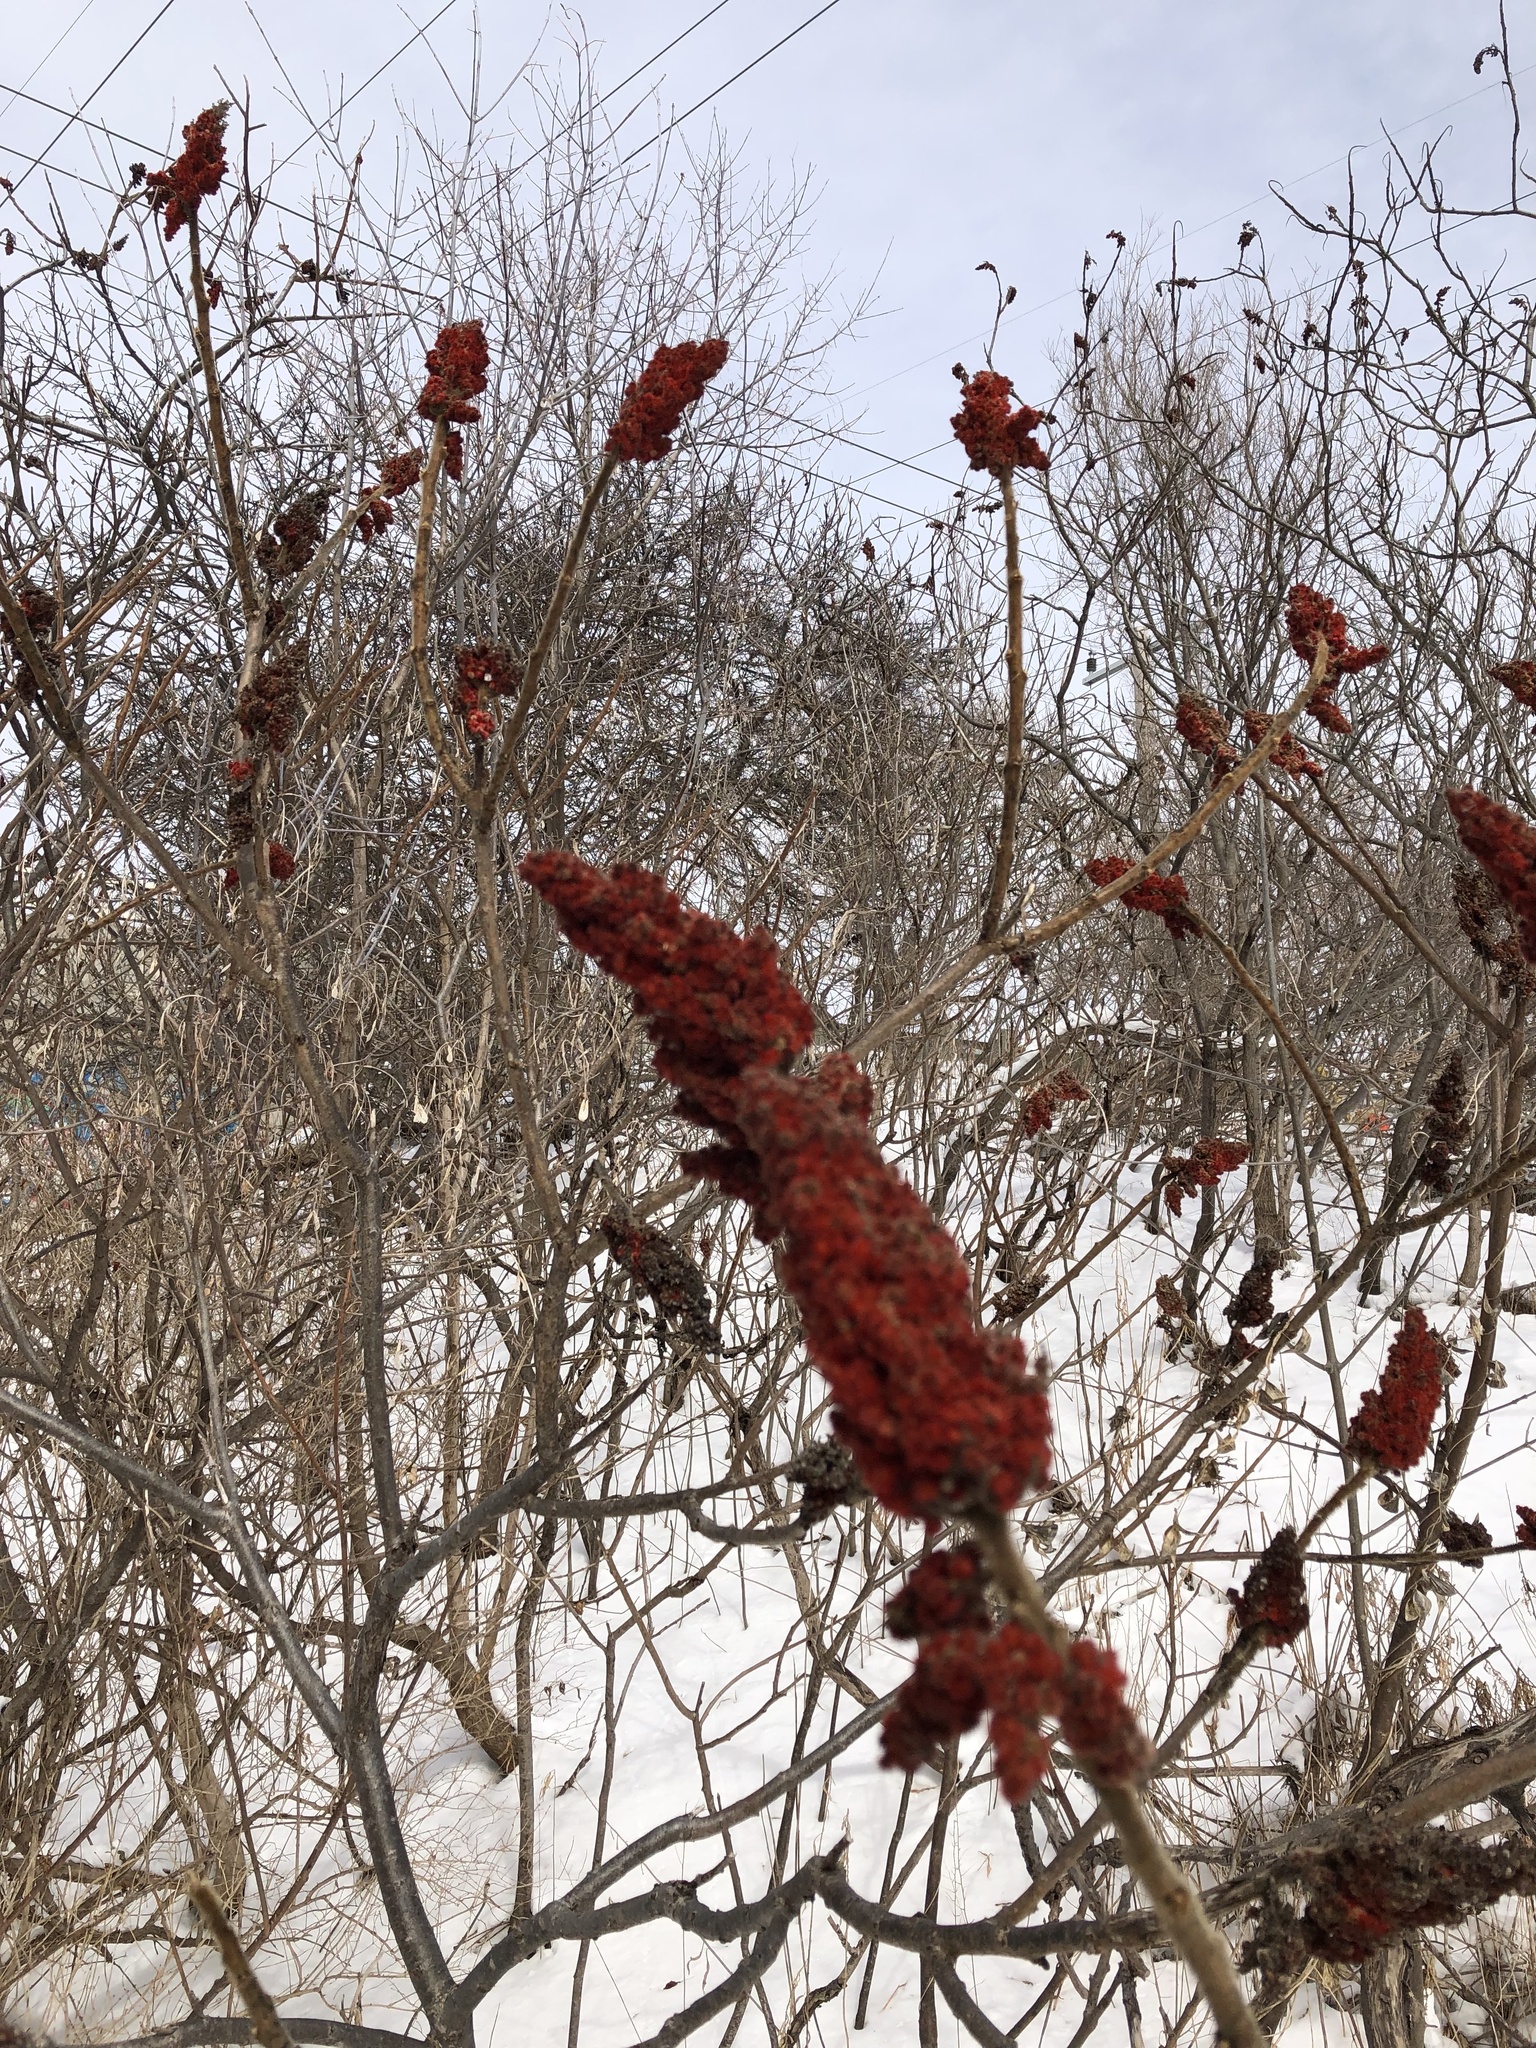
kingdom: Plantae
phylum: Tracheophyta
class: Magnoliopsida
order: Sapindales
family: Anacardiaceae
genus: Rhus
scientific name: Rhus typhina
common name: Staghorn sumac
